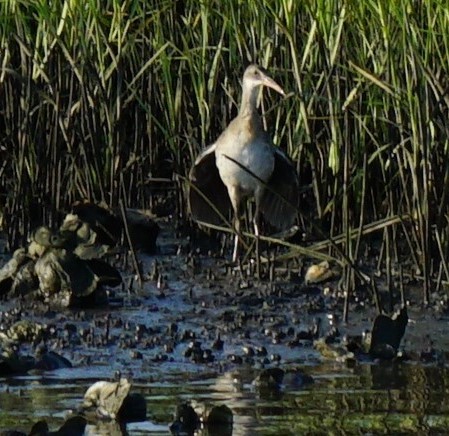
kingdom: Animalia
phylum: Chordata
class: Aves
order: Gruiformes
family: Rallidae
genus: Rallus
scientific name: Rallus crepitans
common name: Clapper rail
